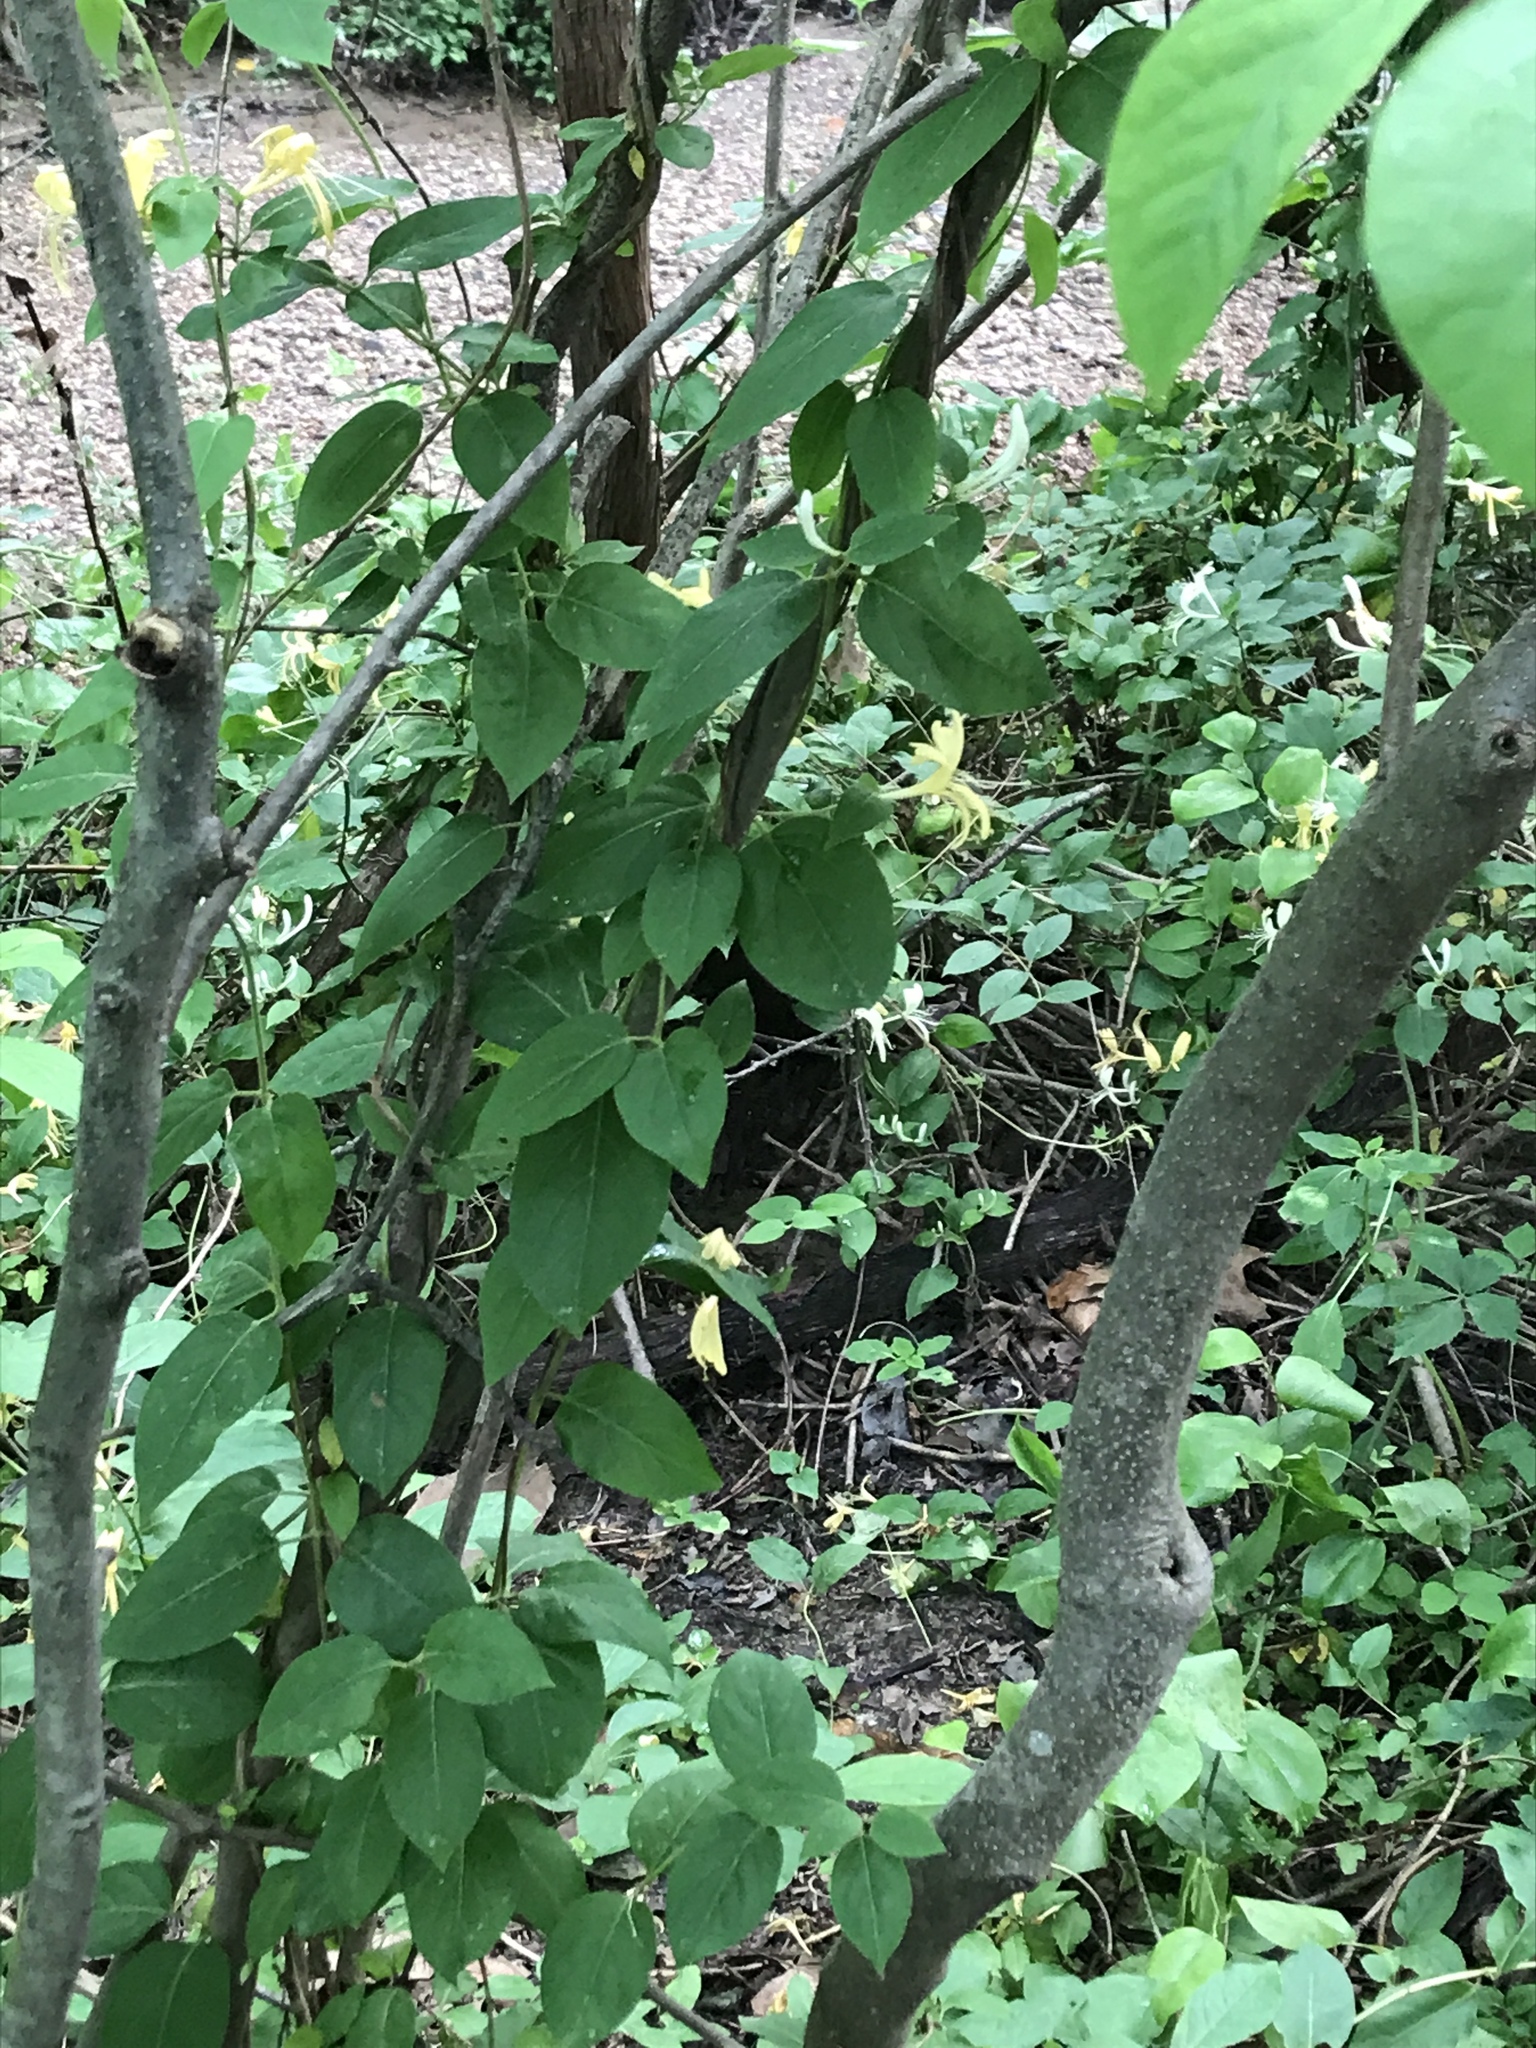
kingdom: Plantae
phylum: Tracheophyta
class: Magnoliopsida
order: Dipsacales
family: Caprifoliaceae
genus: Lonicera
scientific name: Lonicera japonica
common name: Japanese honeysuckle
